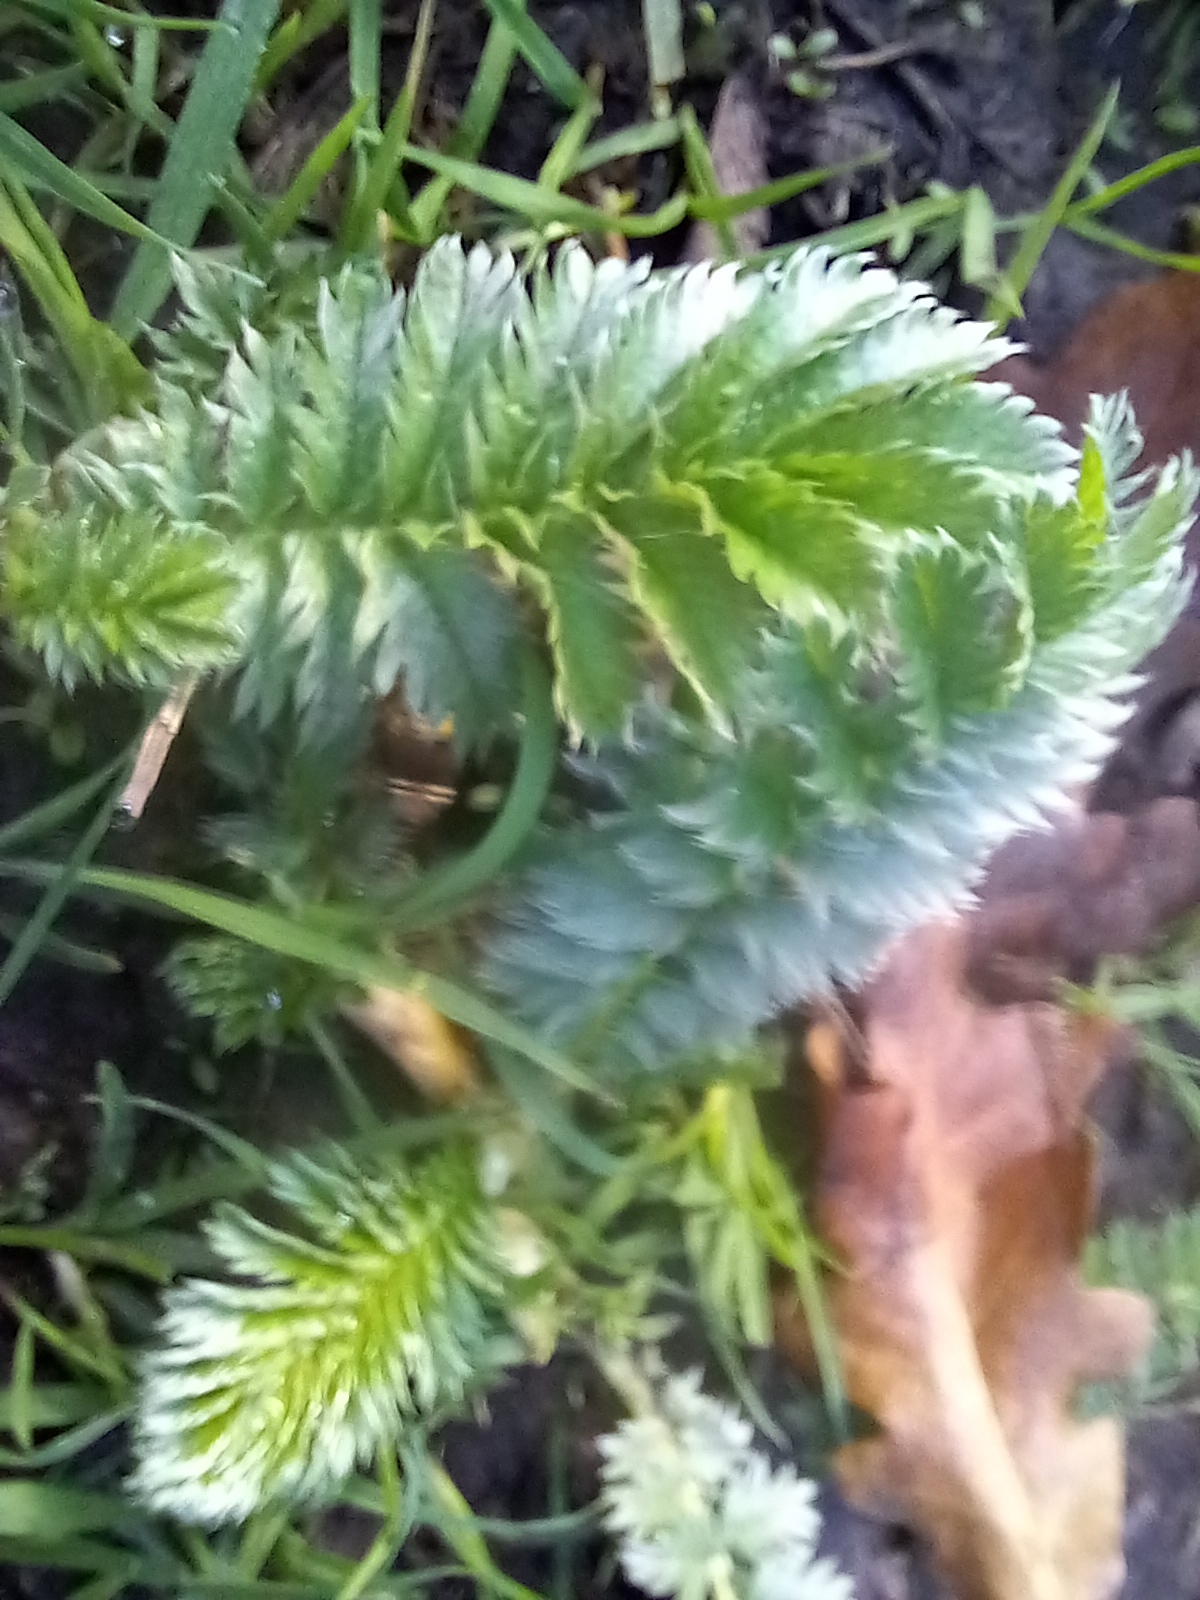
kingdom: Plantae
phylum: Tracheophyta
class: Magnoliopsida
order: Rosales
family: Rosaceae
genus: Argentina
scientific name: Argentina anserina
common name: Common silverweed
